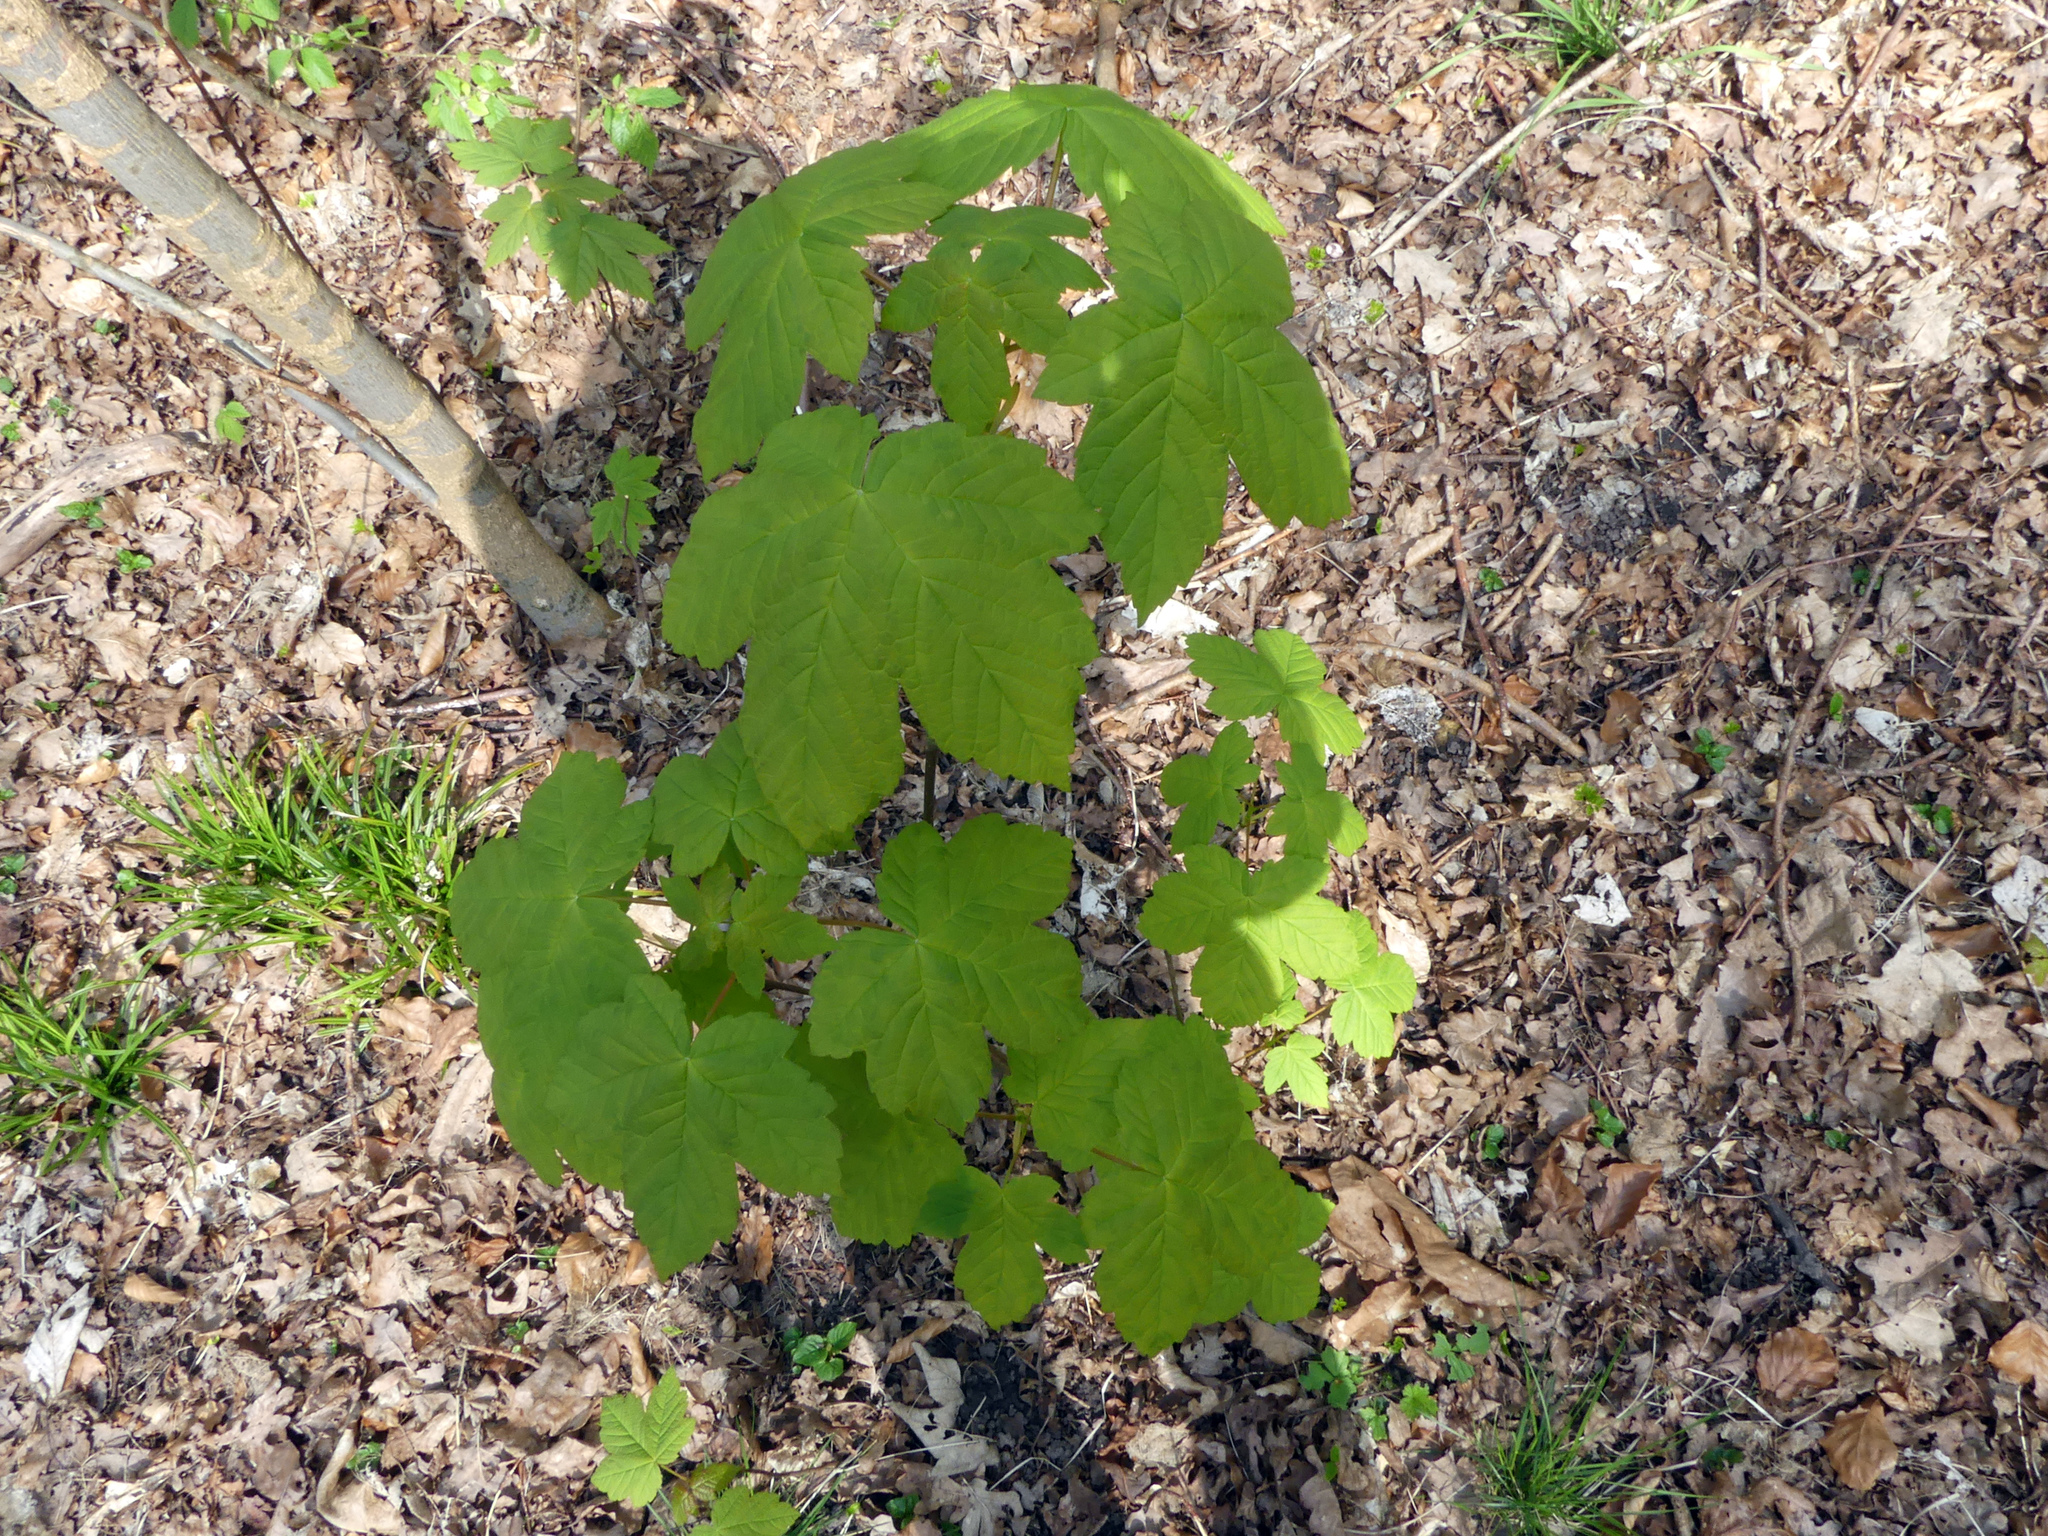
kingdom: Plantae
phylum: Tracheophyta
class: Magnoliopsida
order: Sapindales
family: Sapindaceae
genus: Acer
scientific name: Acer pseudoplatanus
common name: Sycamore
